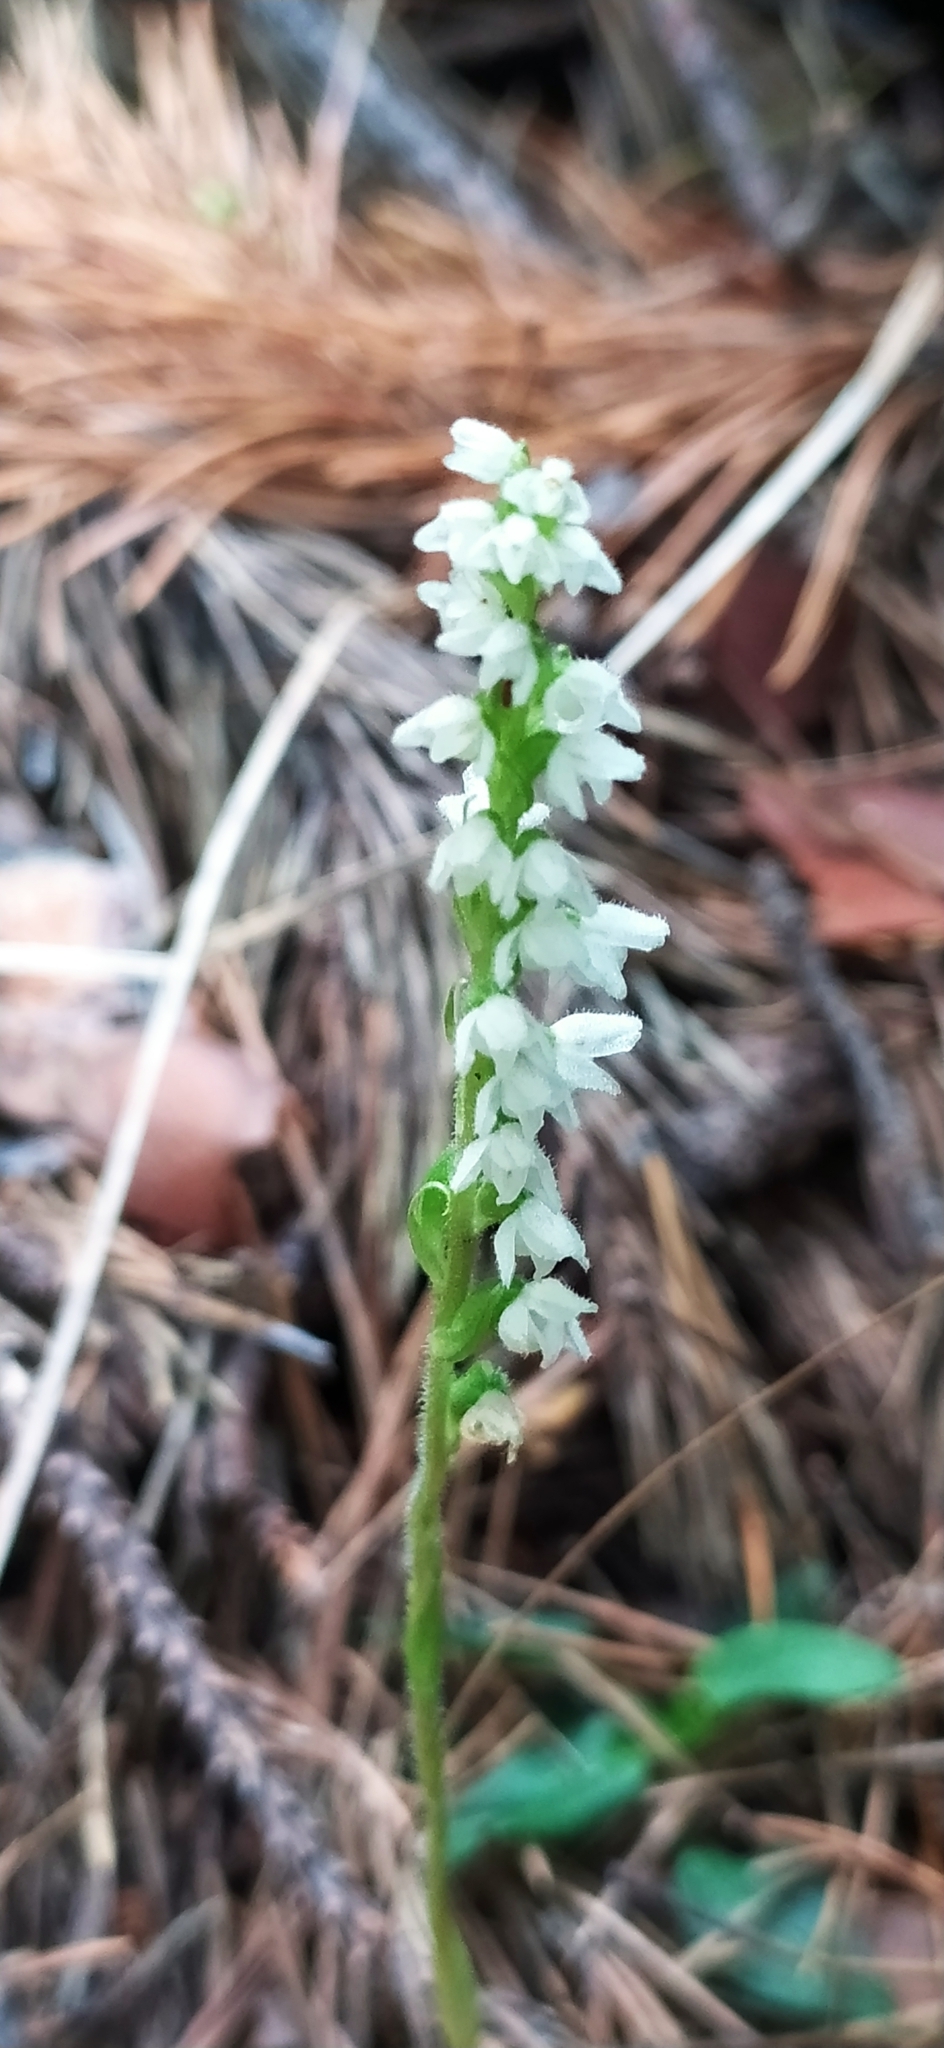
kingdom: Plantae
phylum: Tracheophyta
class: Liliopsida
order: Asparagales
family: Orchidaceae
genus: Goodyera
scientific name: Goodyera repens
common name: Creeping lady's-tresses
